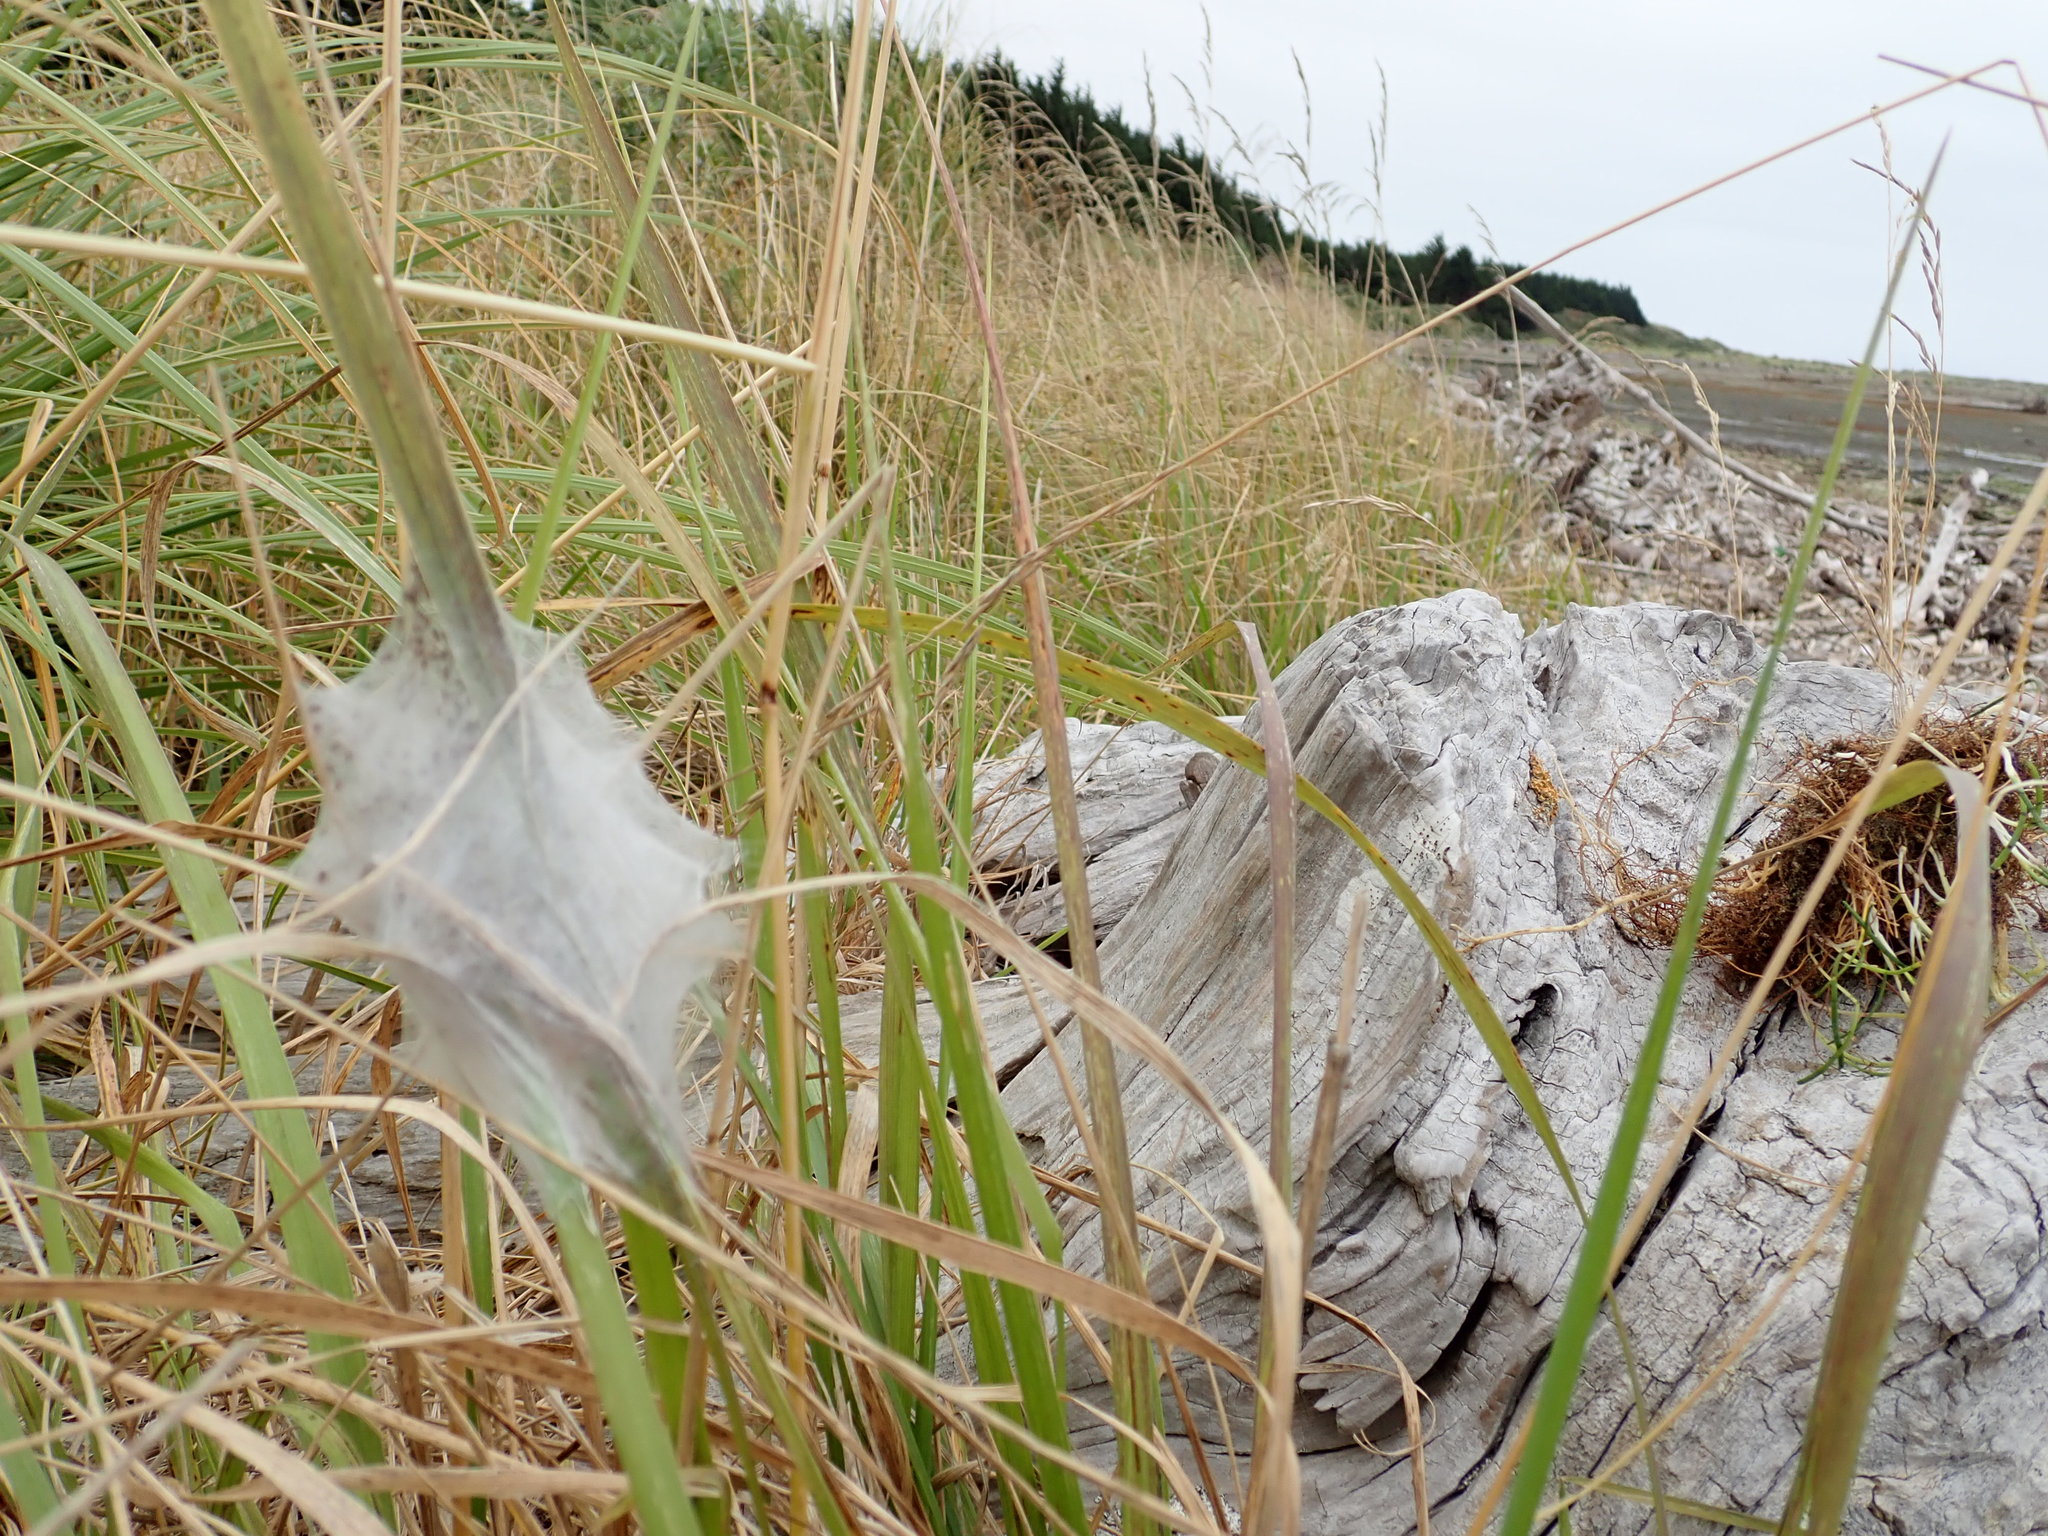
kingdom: Animalia
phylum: Arthropoda
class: Arachnida
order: Araneae
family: Pisauridae
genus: Dolomedes
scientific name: Dolomedes minor
